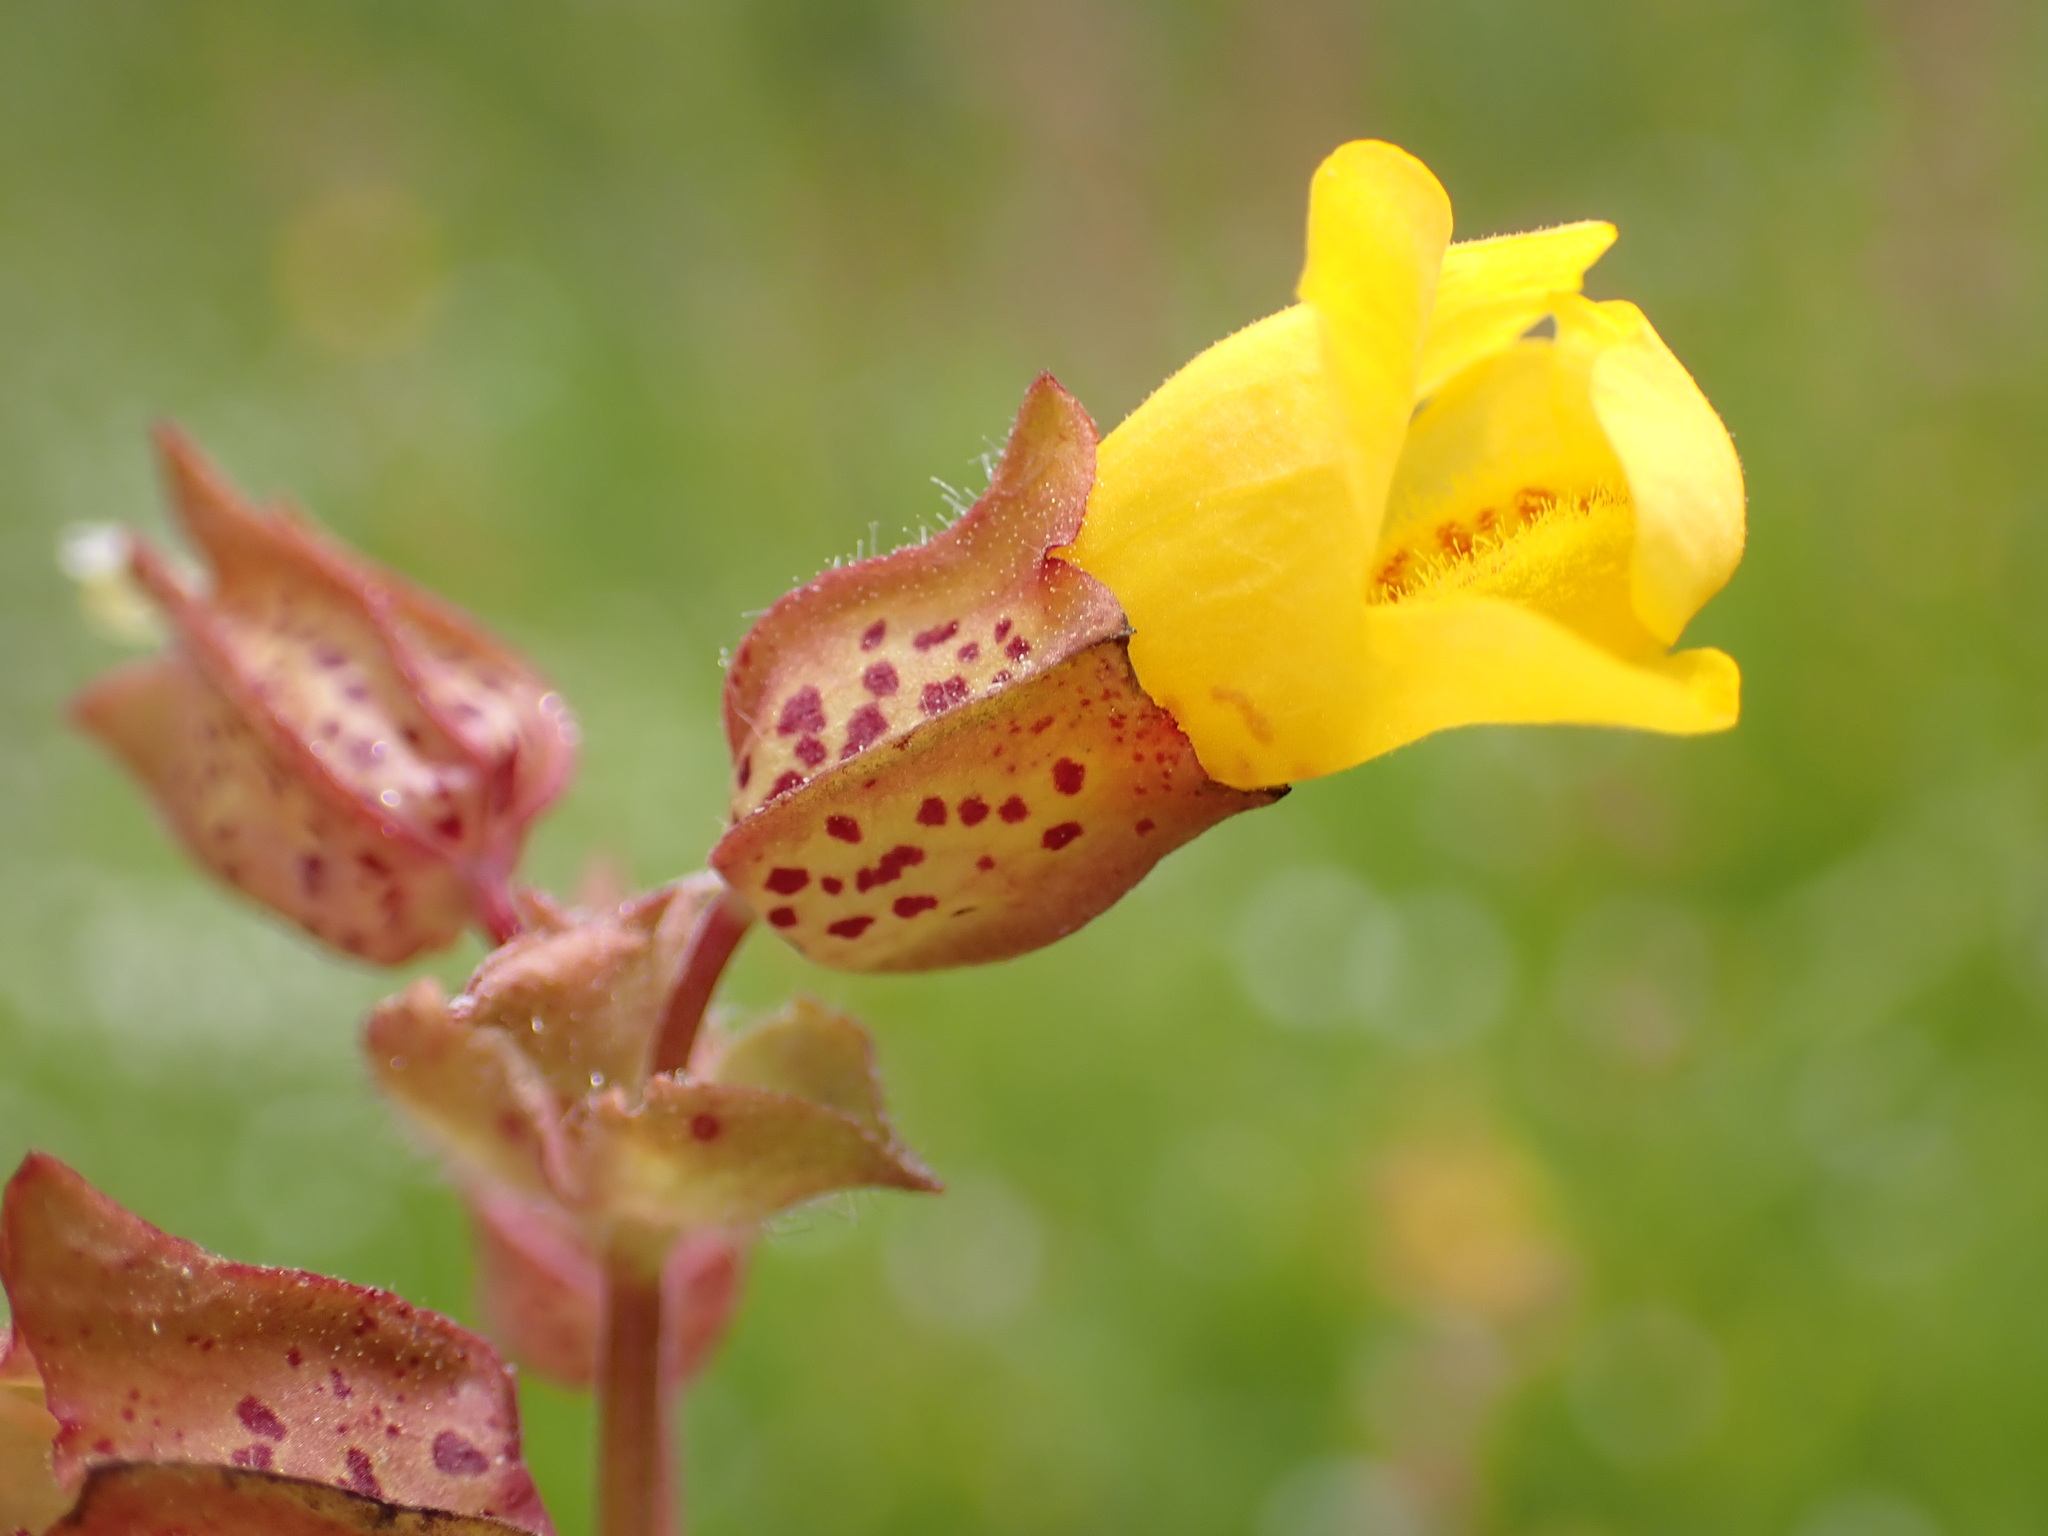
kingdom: Plantae
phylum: Tracheophyta
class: Magnoliopsida
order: Lamiales
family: Phrymaceae
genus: Erythranthe
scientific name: Erythranthe guttata
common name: Monkeyflower
